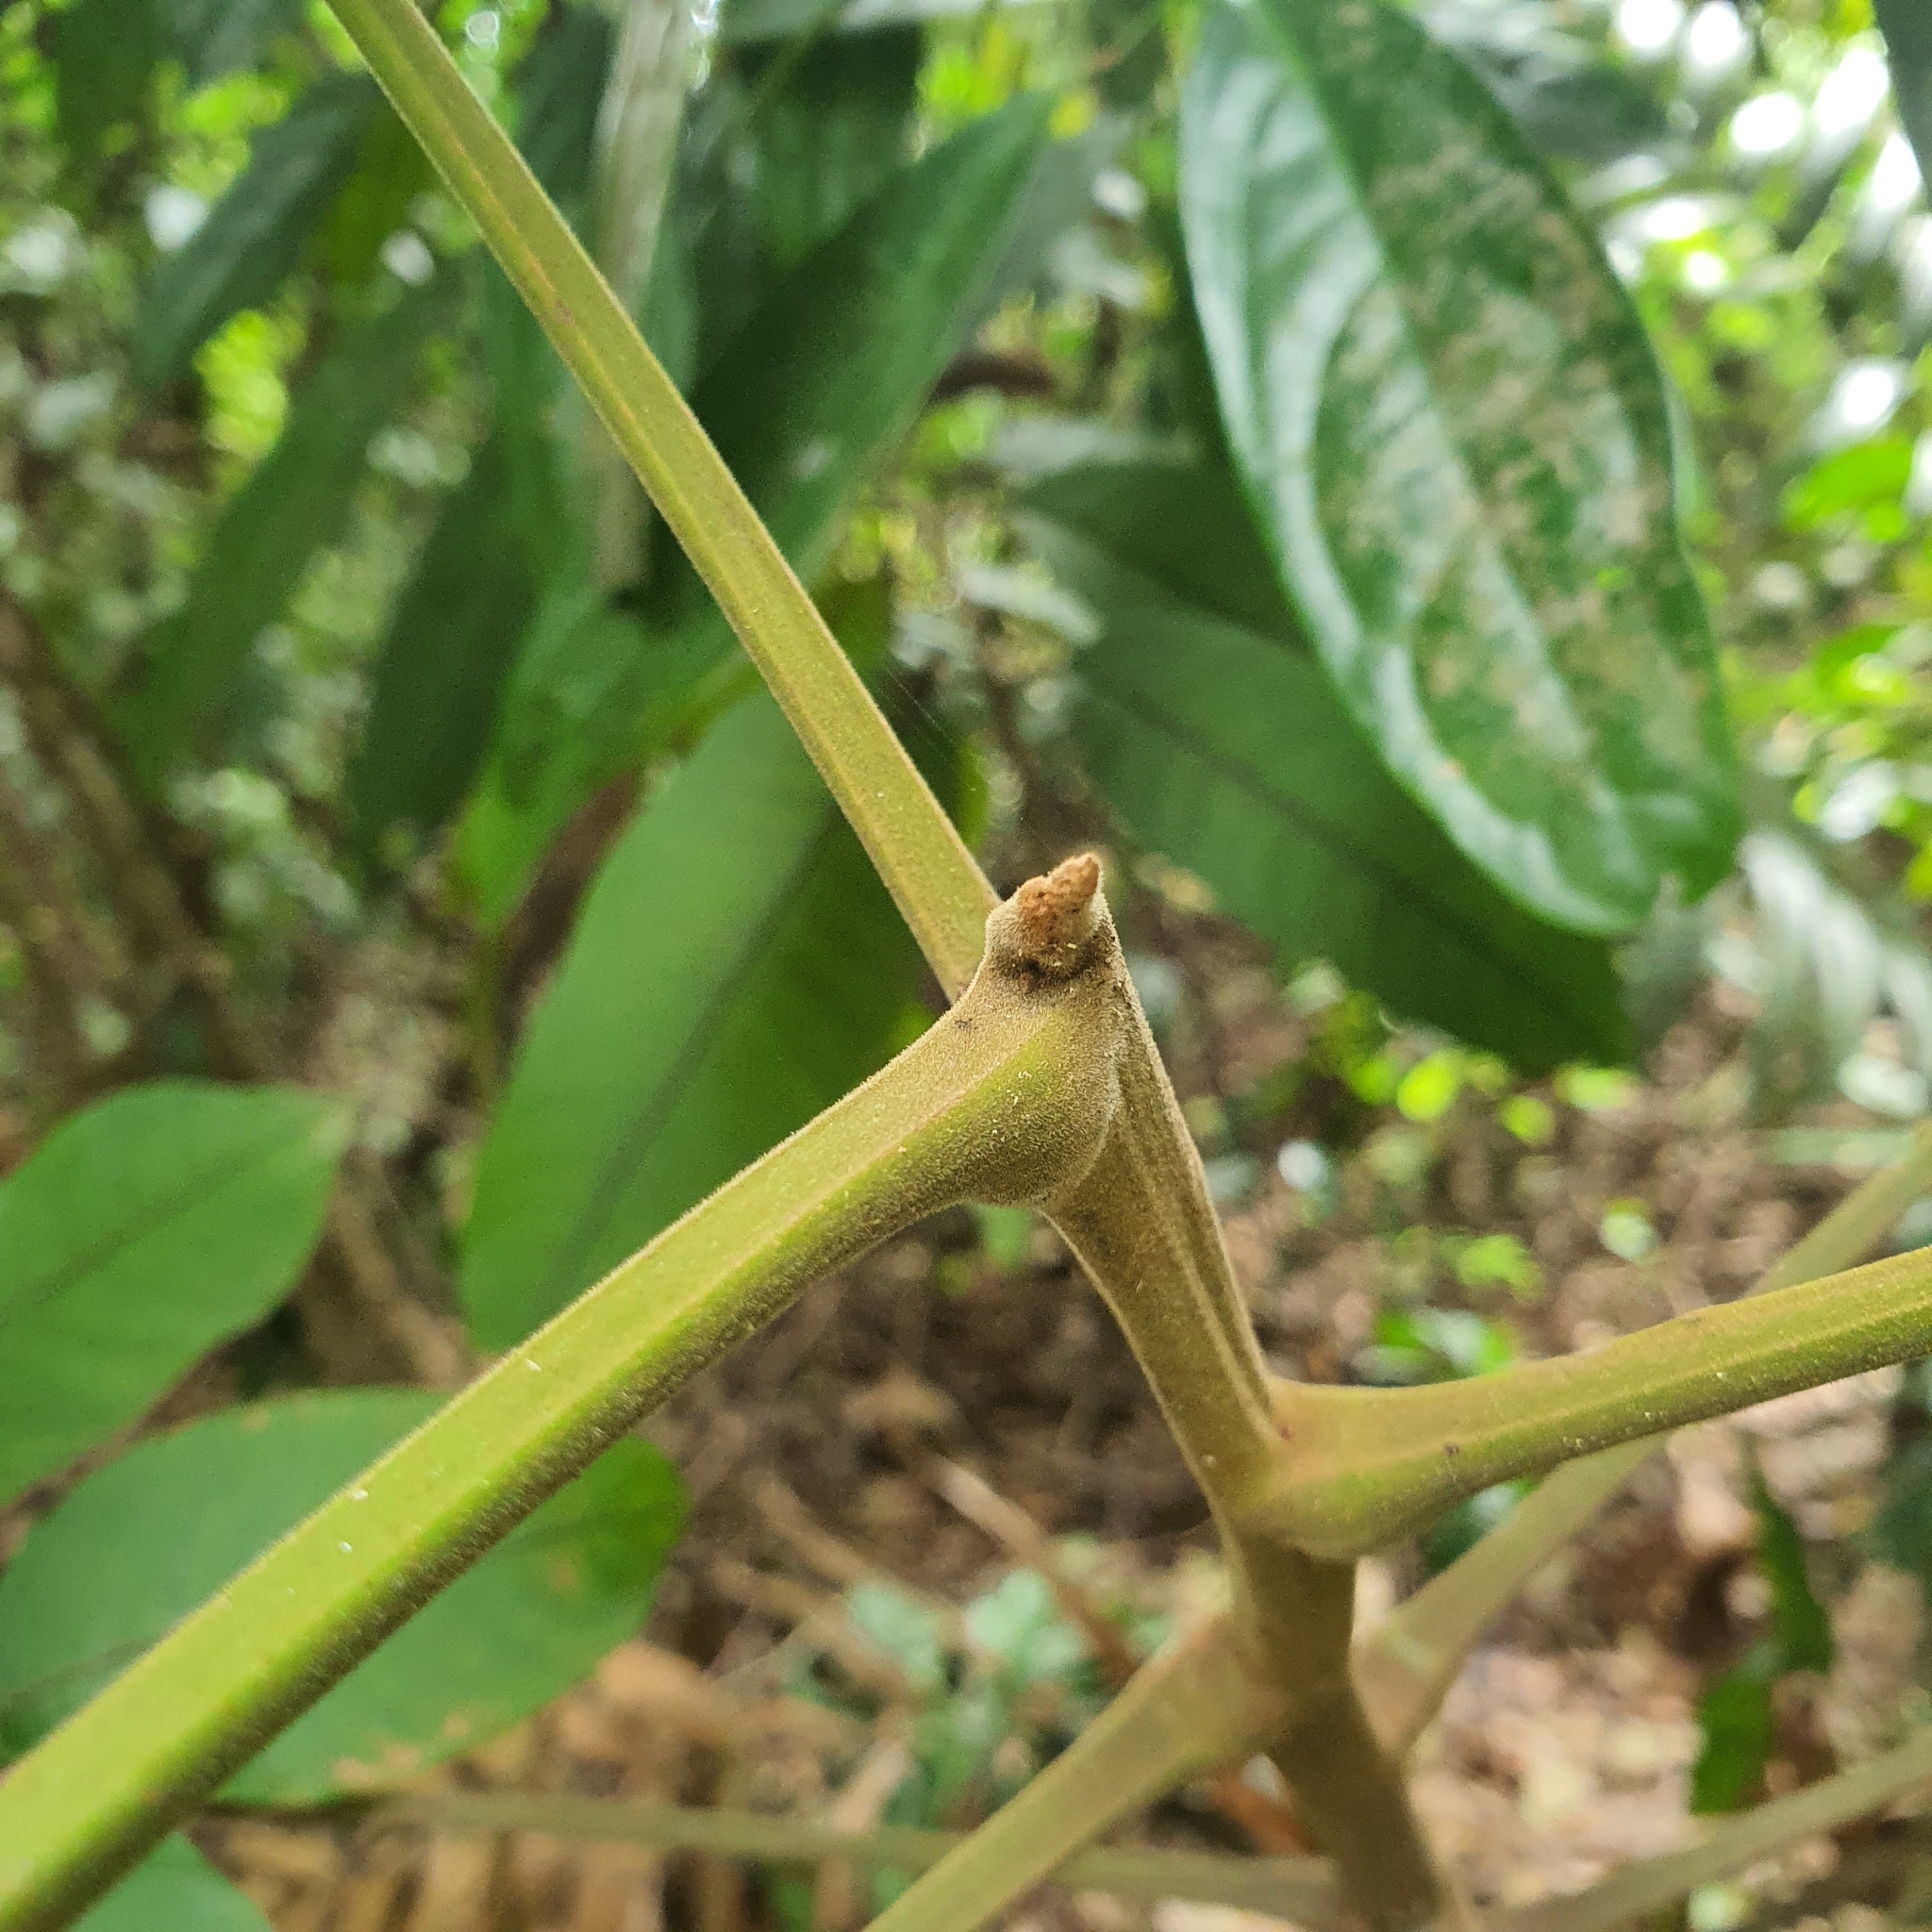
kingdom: Plantae
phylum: Tracheophyta
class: Magnoliopsida
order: Sapindales
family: Burseraceae
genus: Santiria
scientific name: Santiria tomentosa
